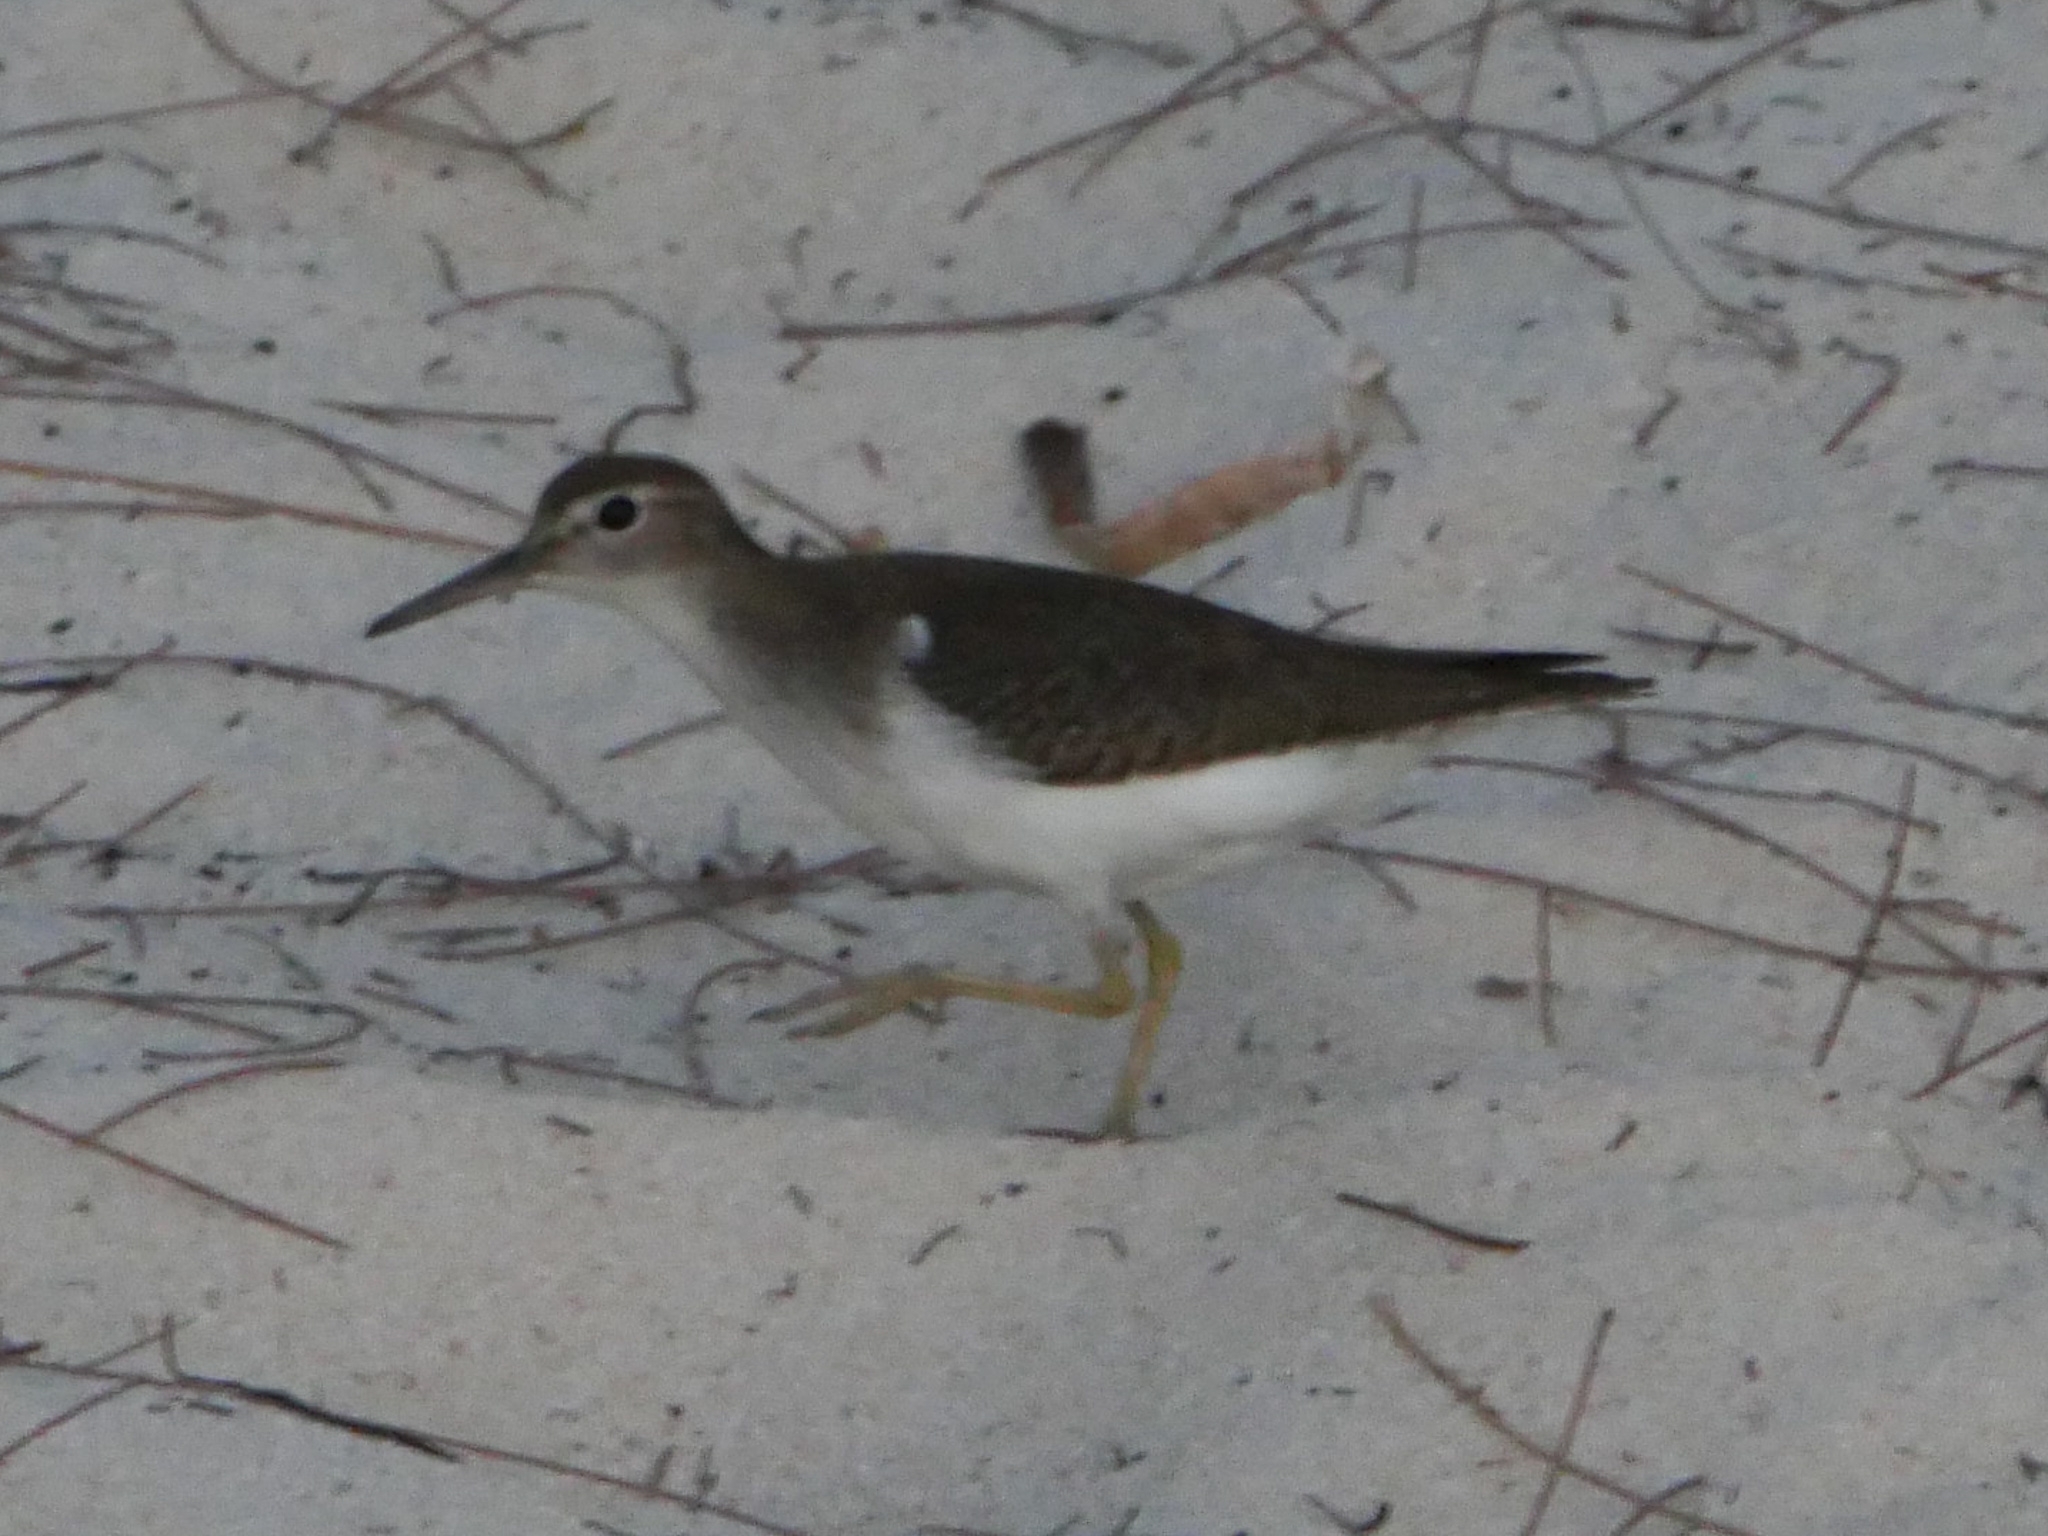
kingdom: Animalia
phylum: Chordata
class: Aves
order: Charadriiformes
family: Scolopacidae
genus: Actitis
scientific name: Actitis macularius
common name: Spotted sandpiper
